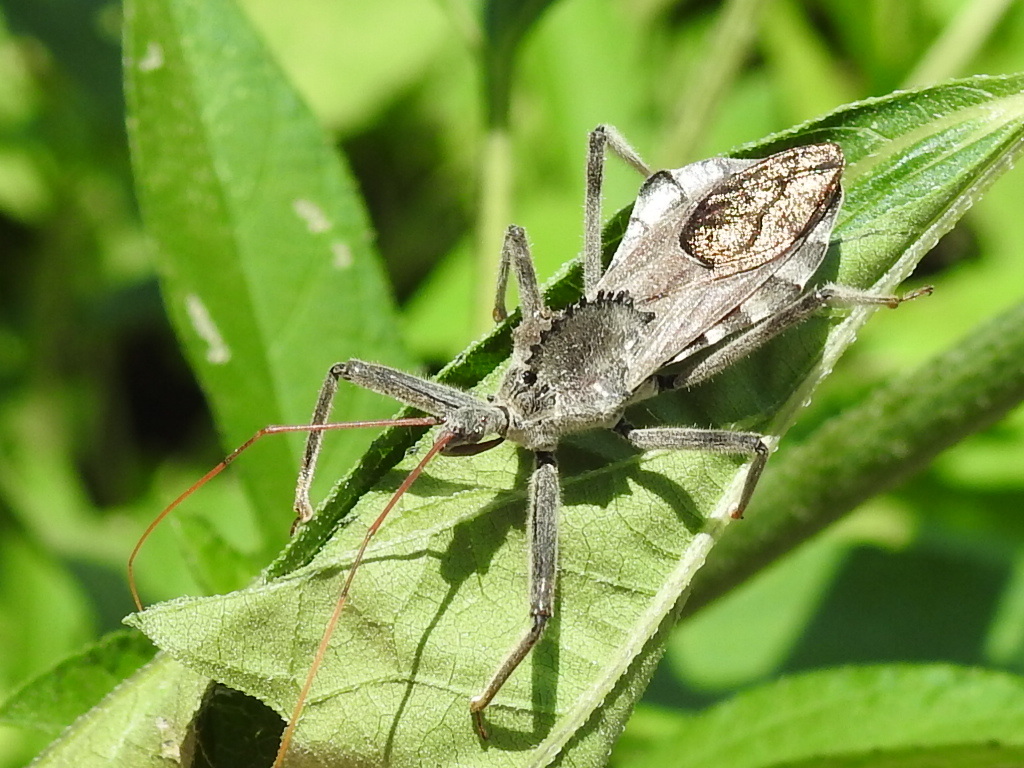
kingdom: Animalia
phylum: Arthropoda
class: Insecta
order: Hemiptera
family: Reduviidae
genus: Arilus
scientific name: Arilus cristatus
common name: North american wheel bug
